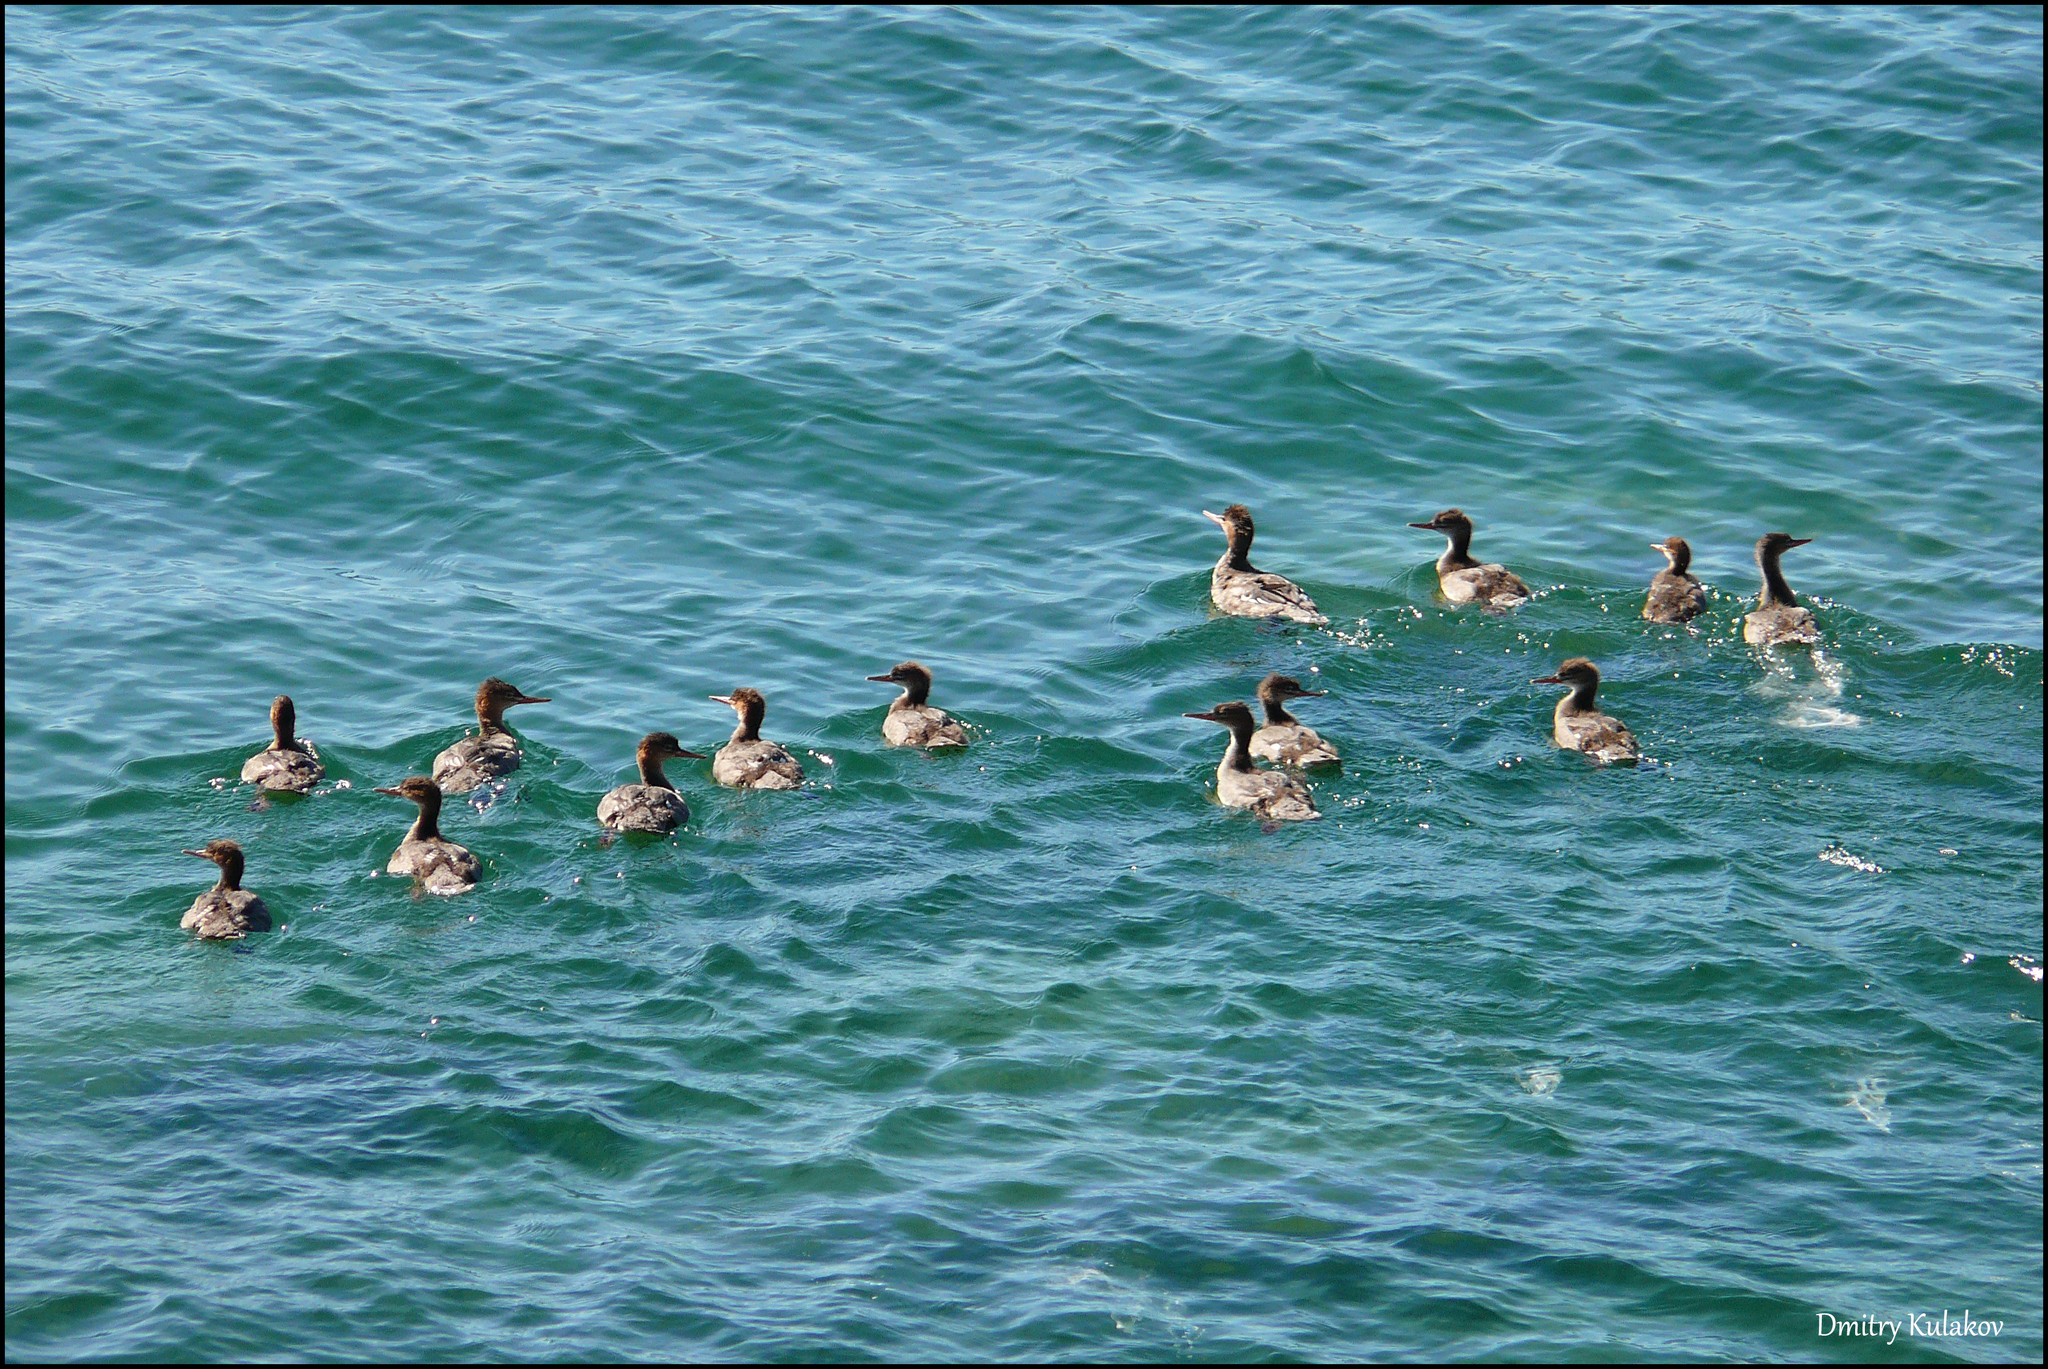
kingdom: Animalia
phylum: Chordata
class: Aves
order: Anseriformes
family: Anatidae
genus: Mergus
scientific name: Mergus serrator
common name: Red-breasted merganser
